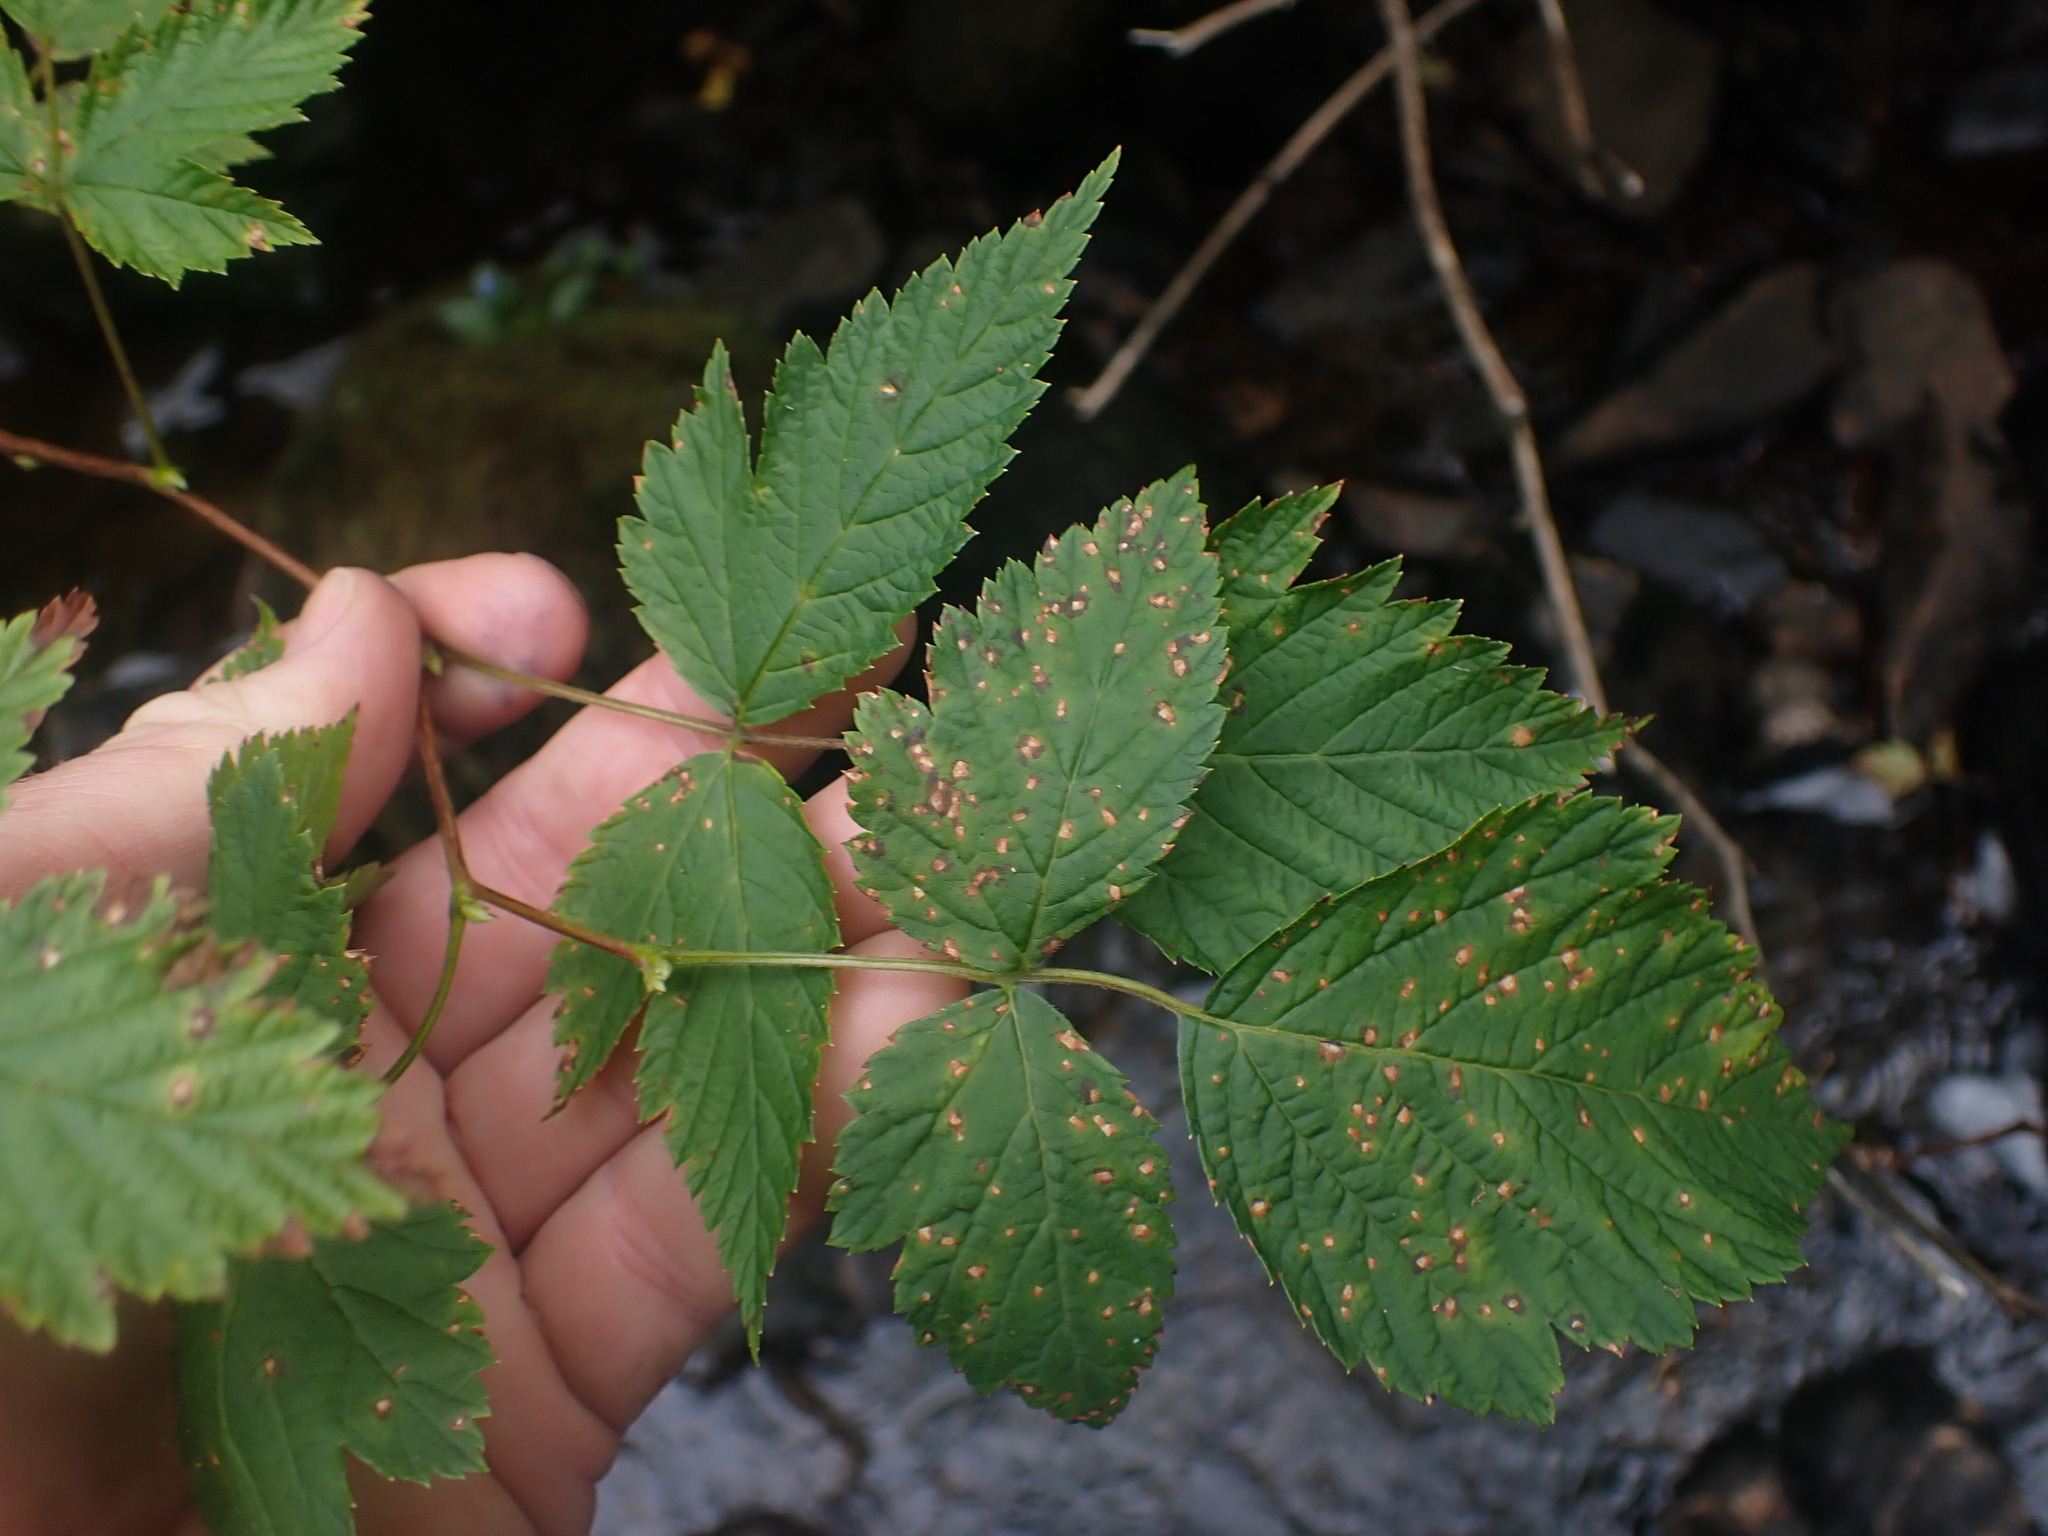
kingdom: Plantae
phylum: Tracheophyta
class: Magnoliopsida
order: Rosales
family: Rosaceae
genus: Rubus
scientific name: Rubus spectabilis
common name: Salmonberry
